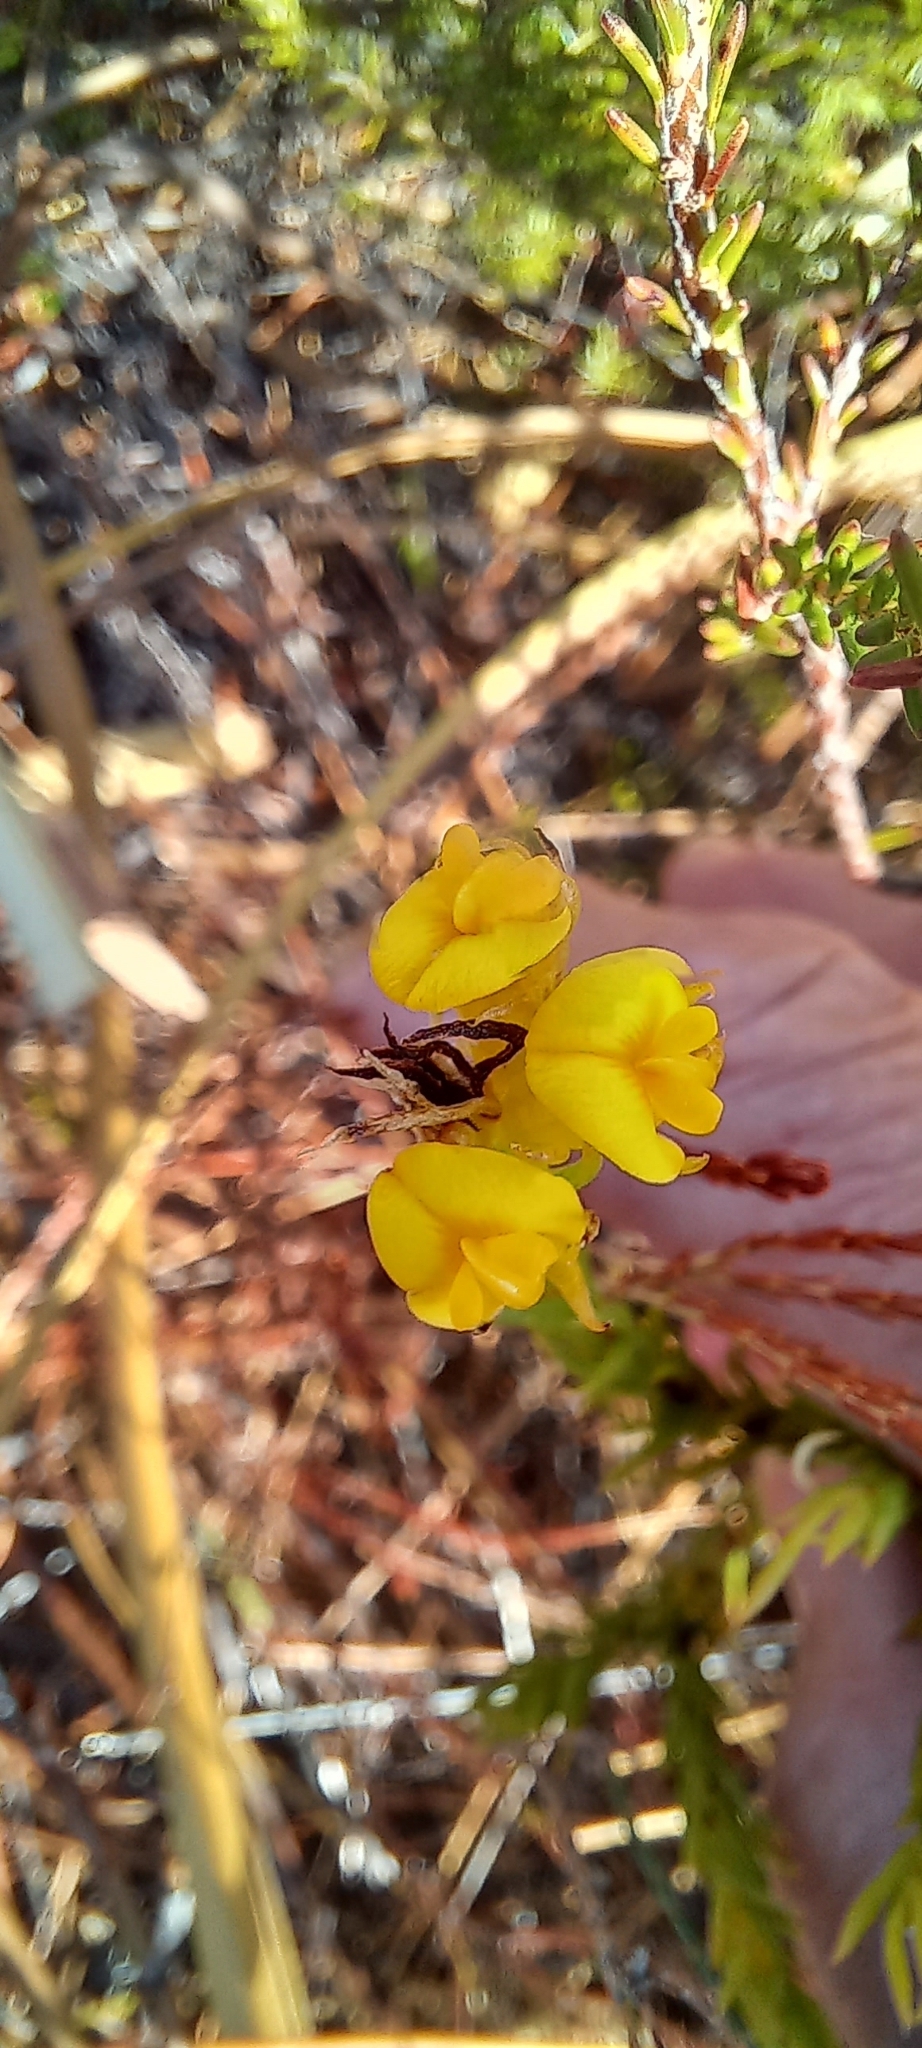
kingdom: Plantae
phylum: Tracheophyta
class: Magnoliopsida
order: Fabales
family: Fabaceae
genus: Aspalathus
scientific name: Aspalathus callosa
